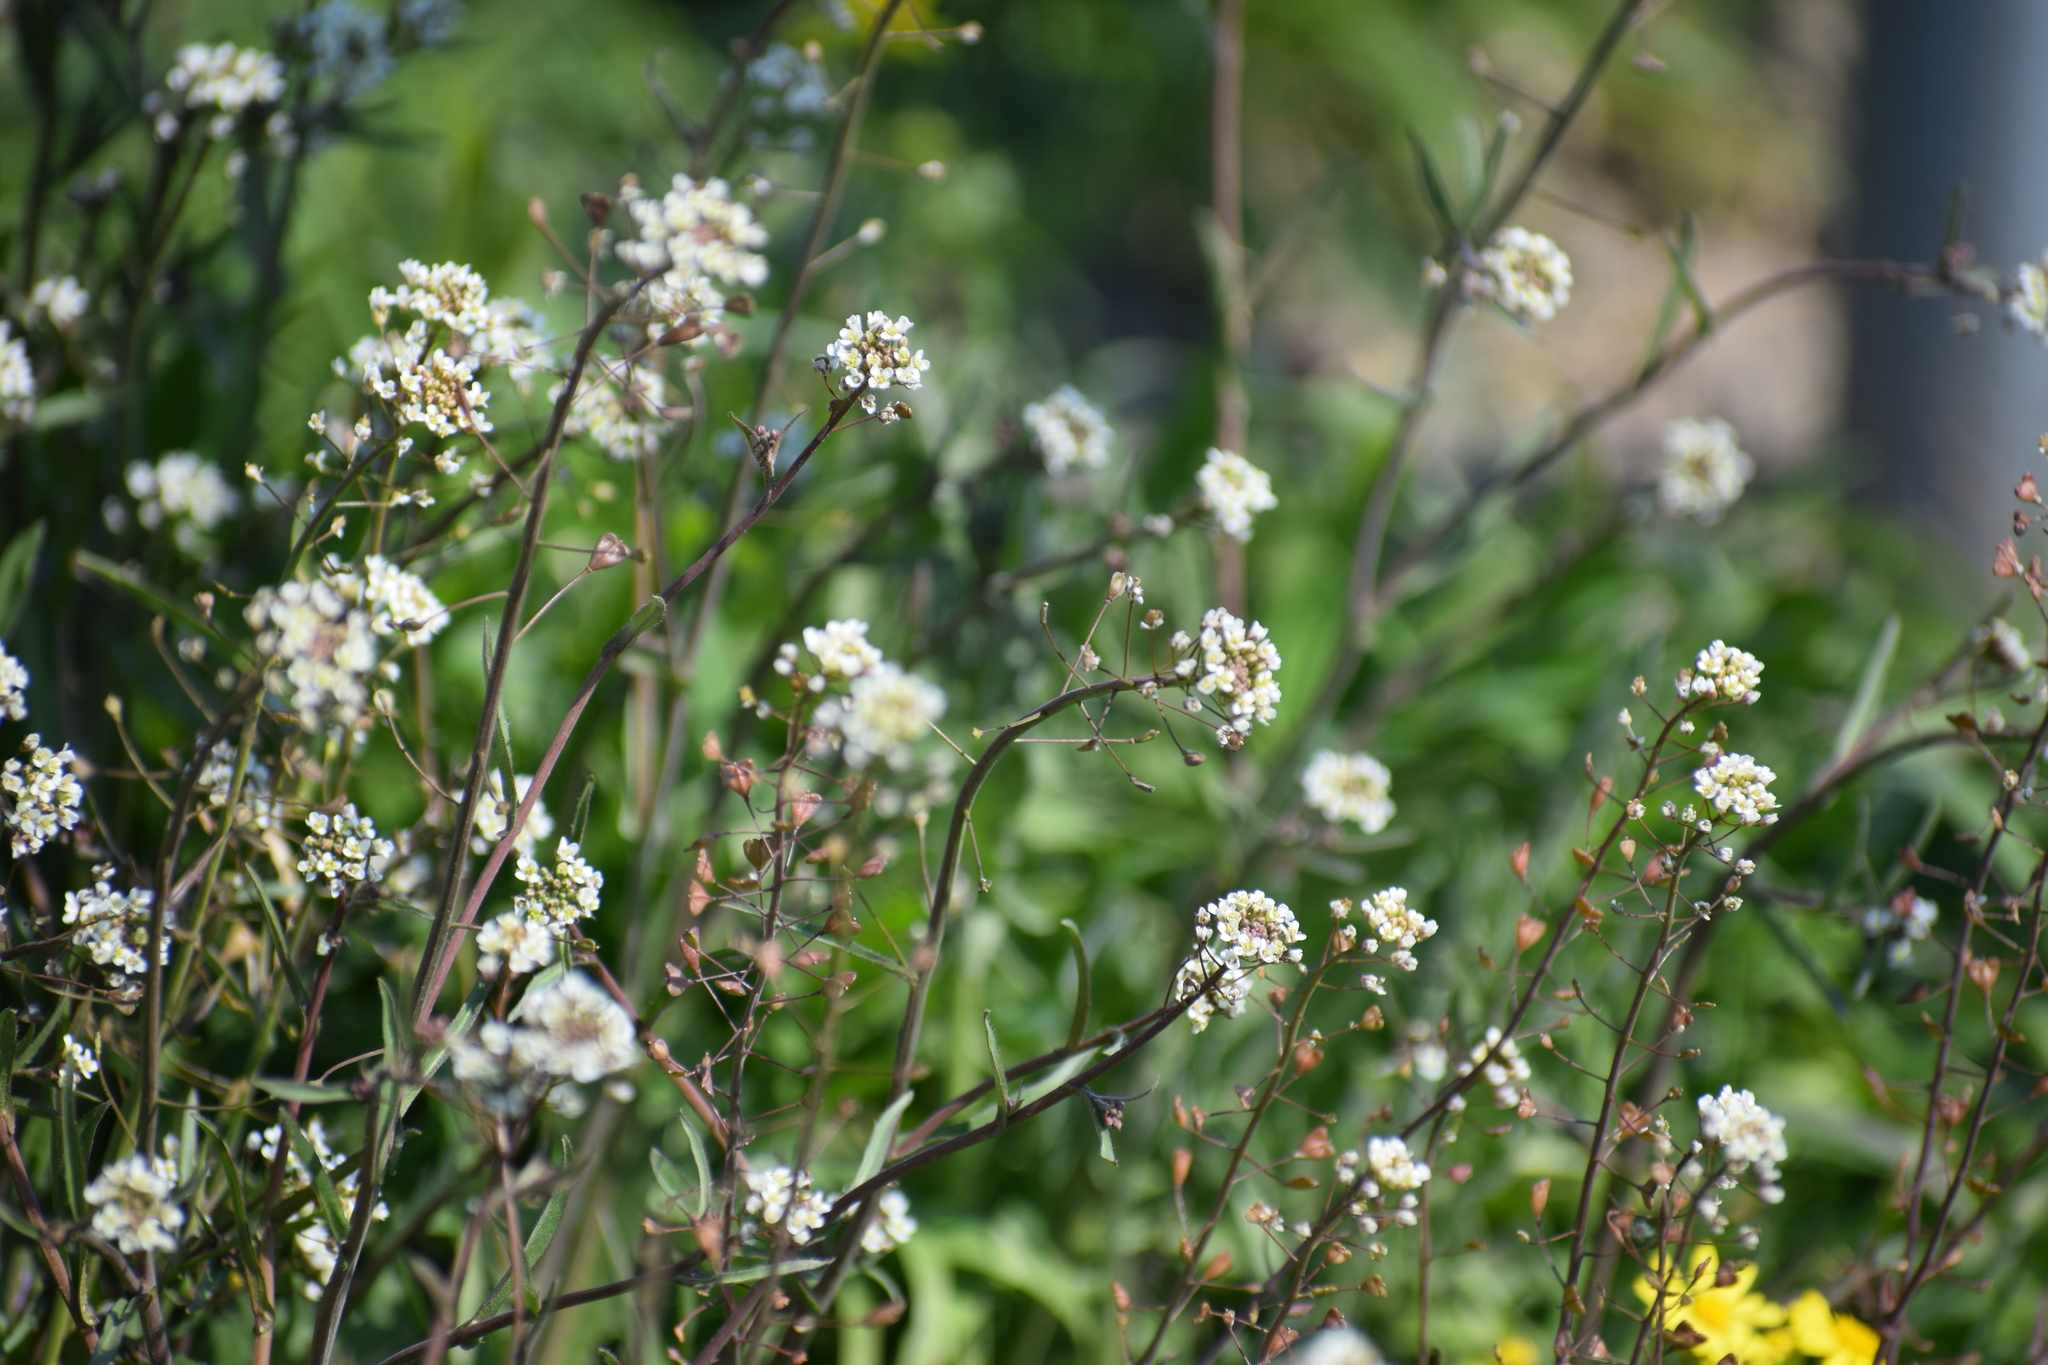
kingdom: Plantae
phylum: Tracheophyta
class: Magnoliopsida
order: Brassicales
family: Brassicaceae
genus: Capsella
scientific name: Capsella bursa-pastoris
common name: Shepherd's purse
